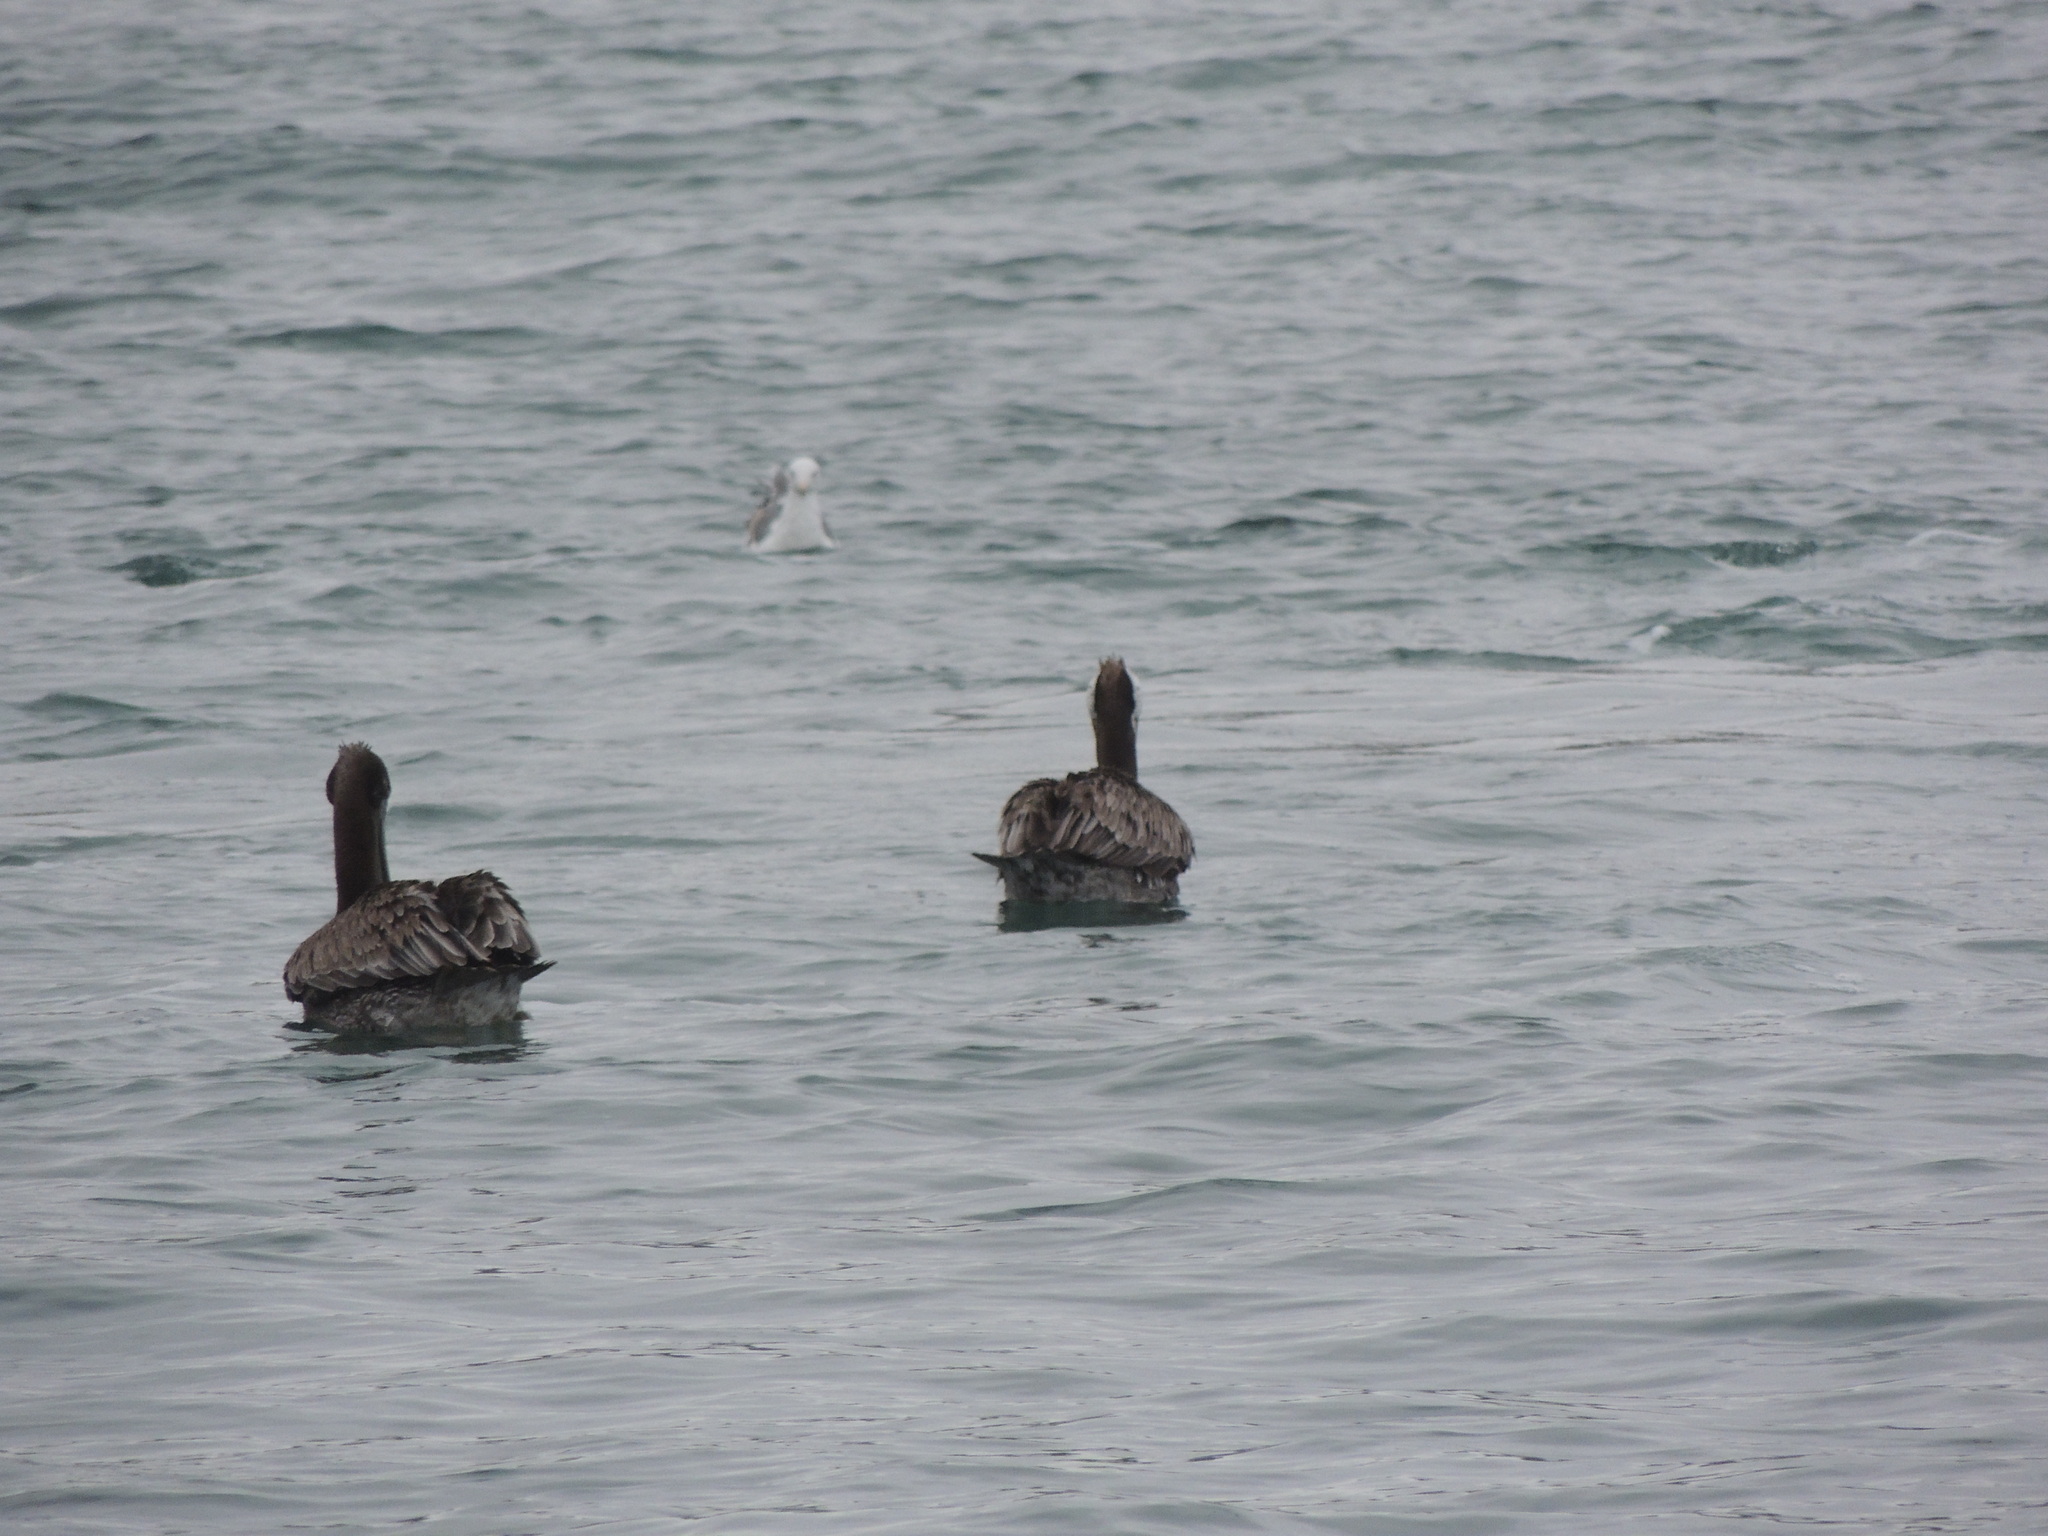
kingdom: Animalia
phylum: Chordata
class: Aves
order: Pelecaniformes
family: Pelecanidae
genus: Pelecanus
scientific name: Pelecanus occidentalis
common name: Brown pelican
